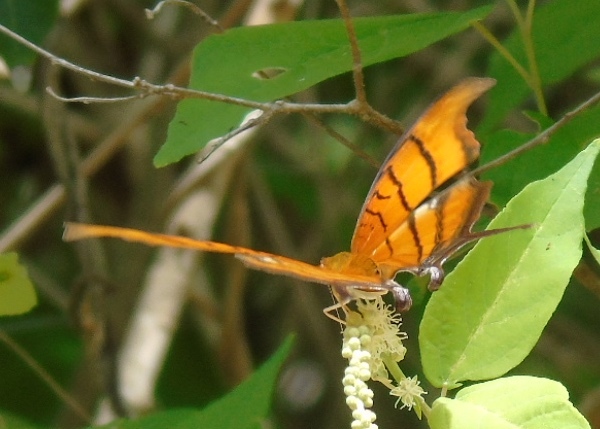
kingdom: Animalia
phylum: Arthropoda
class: Insecta
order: Lepidoptera
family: Nymphalidae
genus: Marpesia
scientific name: Marpesia petreus
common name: Red dagger wing
